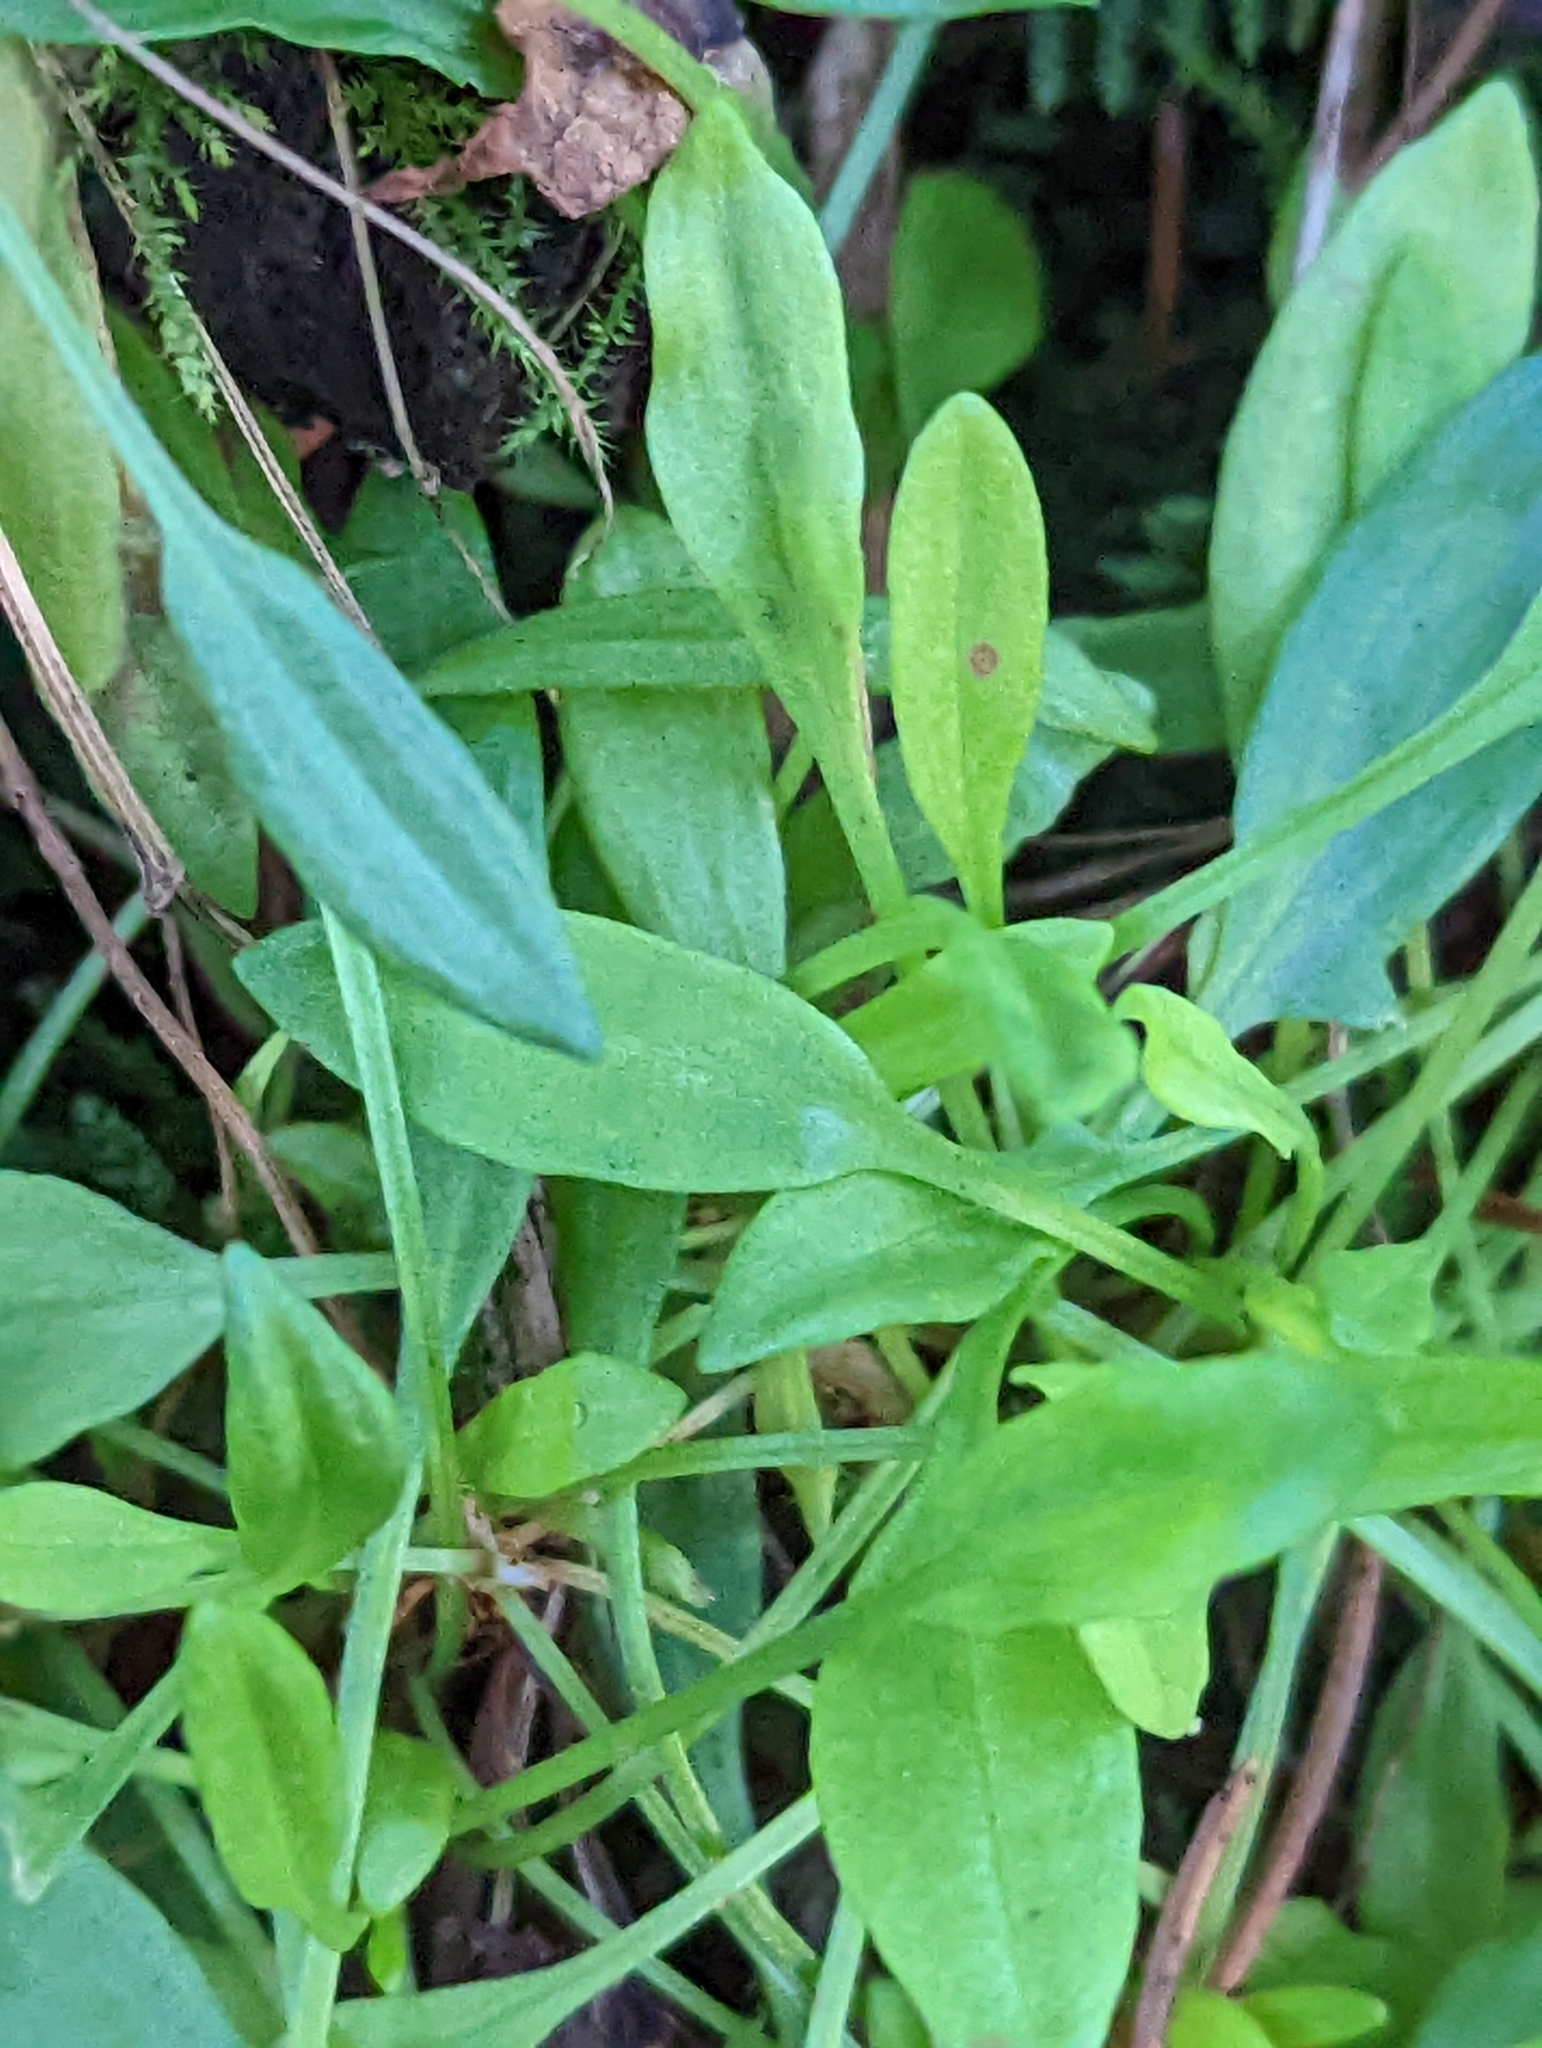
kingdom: Plantae
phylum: Tracheophyta
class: Magnoliopsida
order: Caryophyllales
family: Polygonaceae
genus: Rumex
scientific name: Rumex acetosella
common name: Common sheep sorrel
